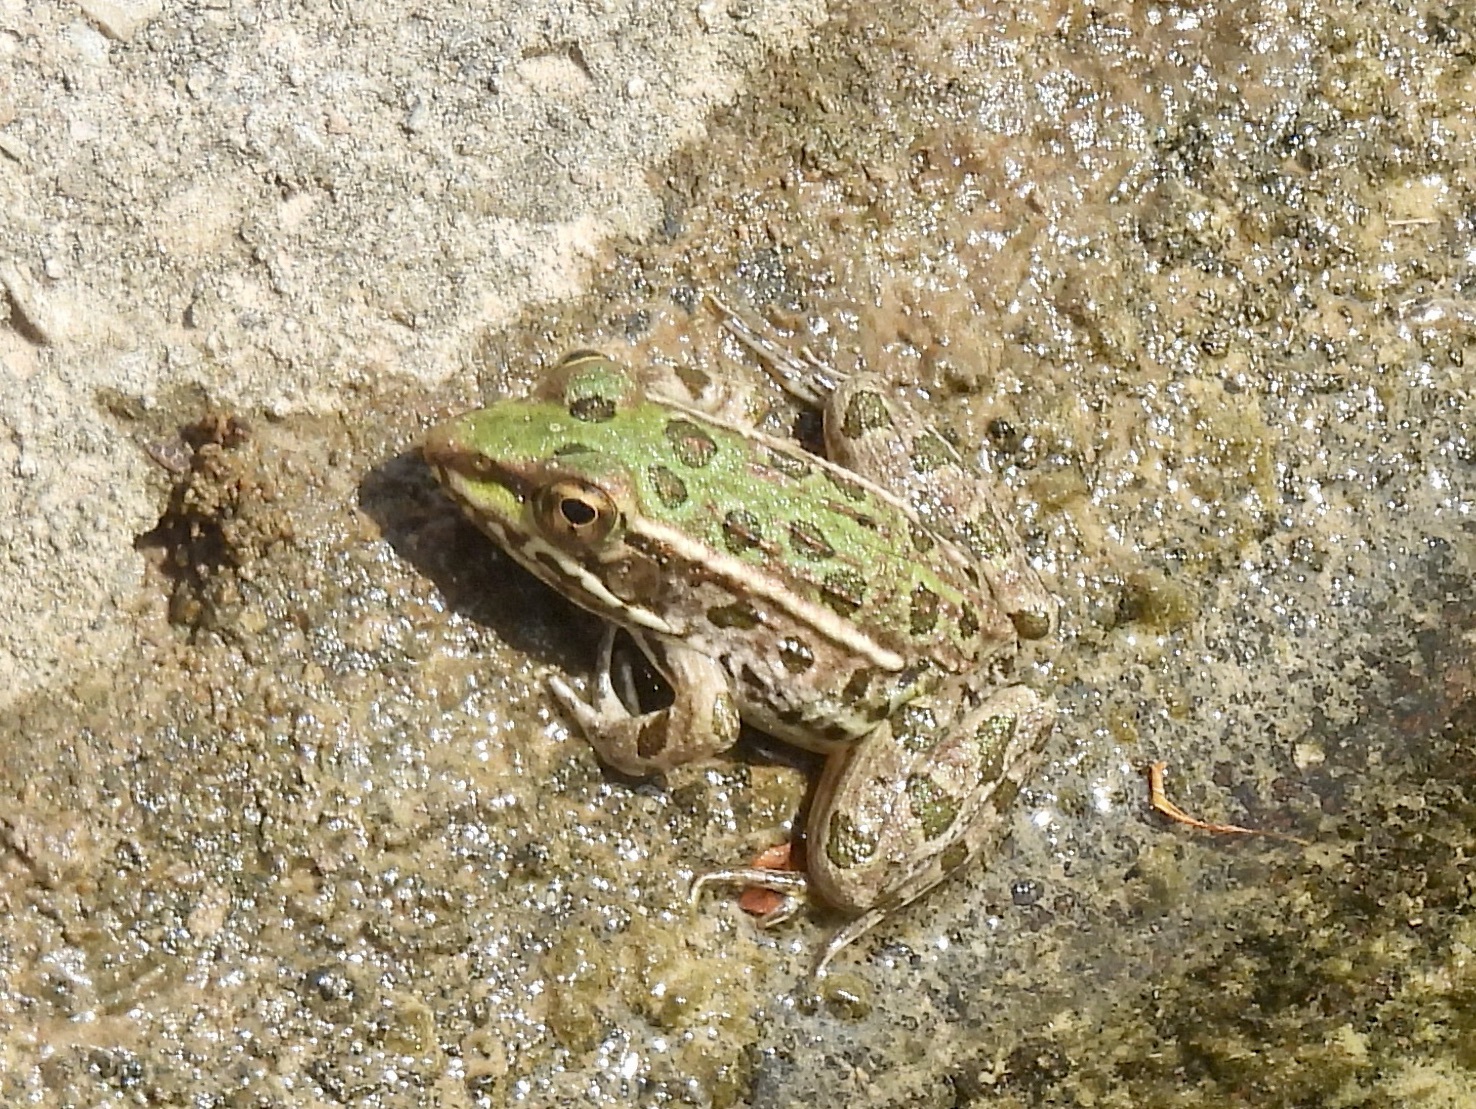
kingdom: Animalia
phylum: Chordata
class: Amphibia
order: Anura
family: Ranidae
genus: Lithobates
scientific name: Lithobates berlandieri
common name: Rio grande leopard frog
